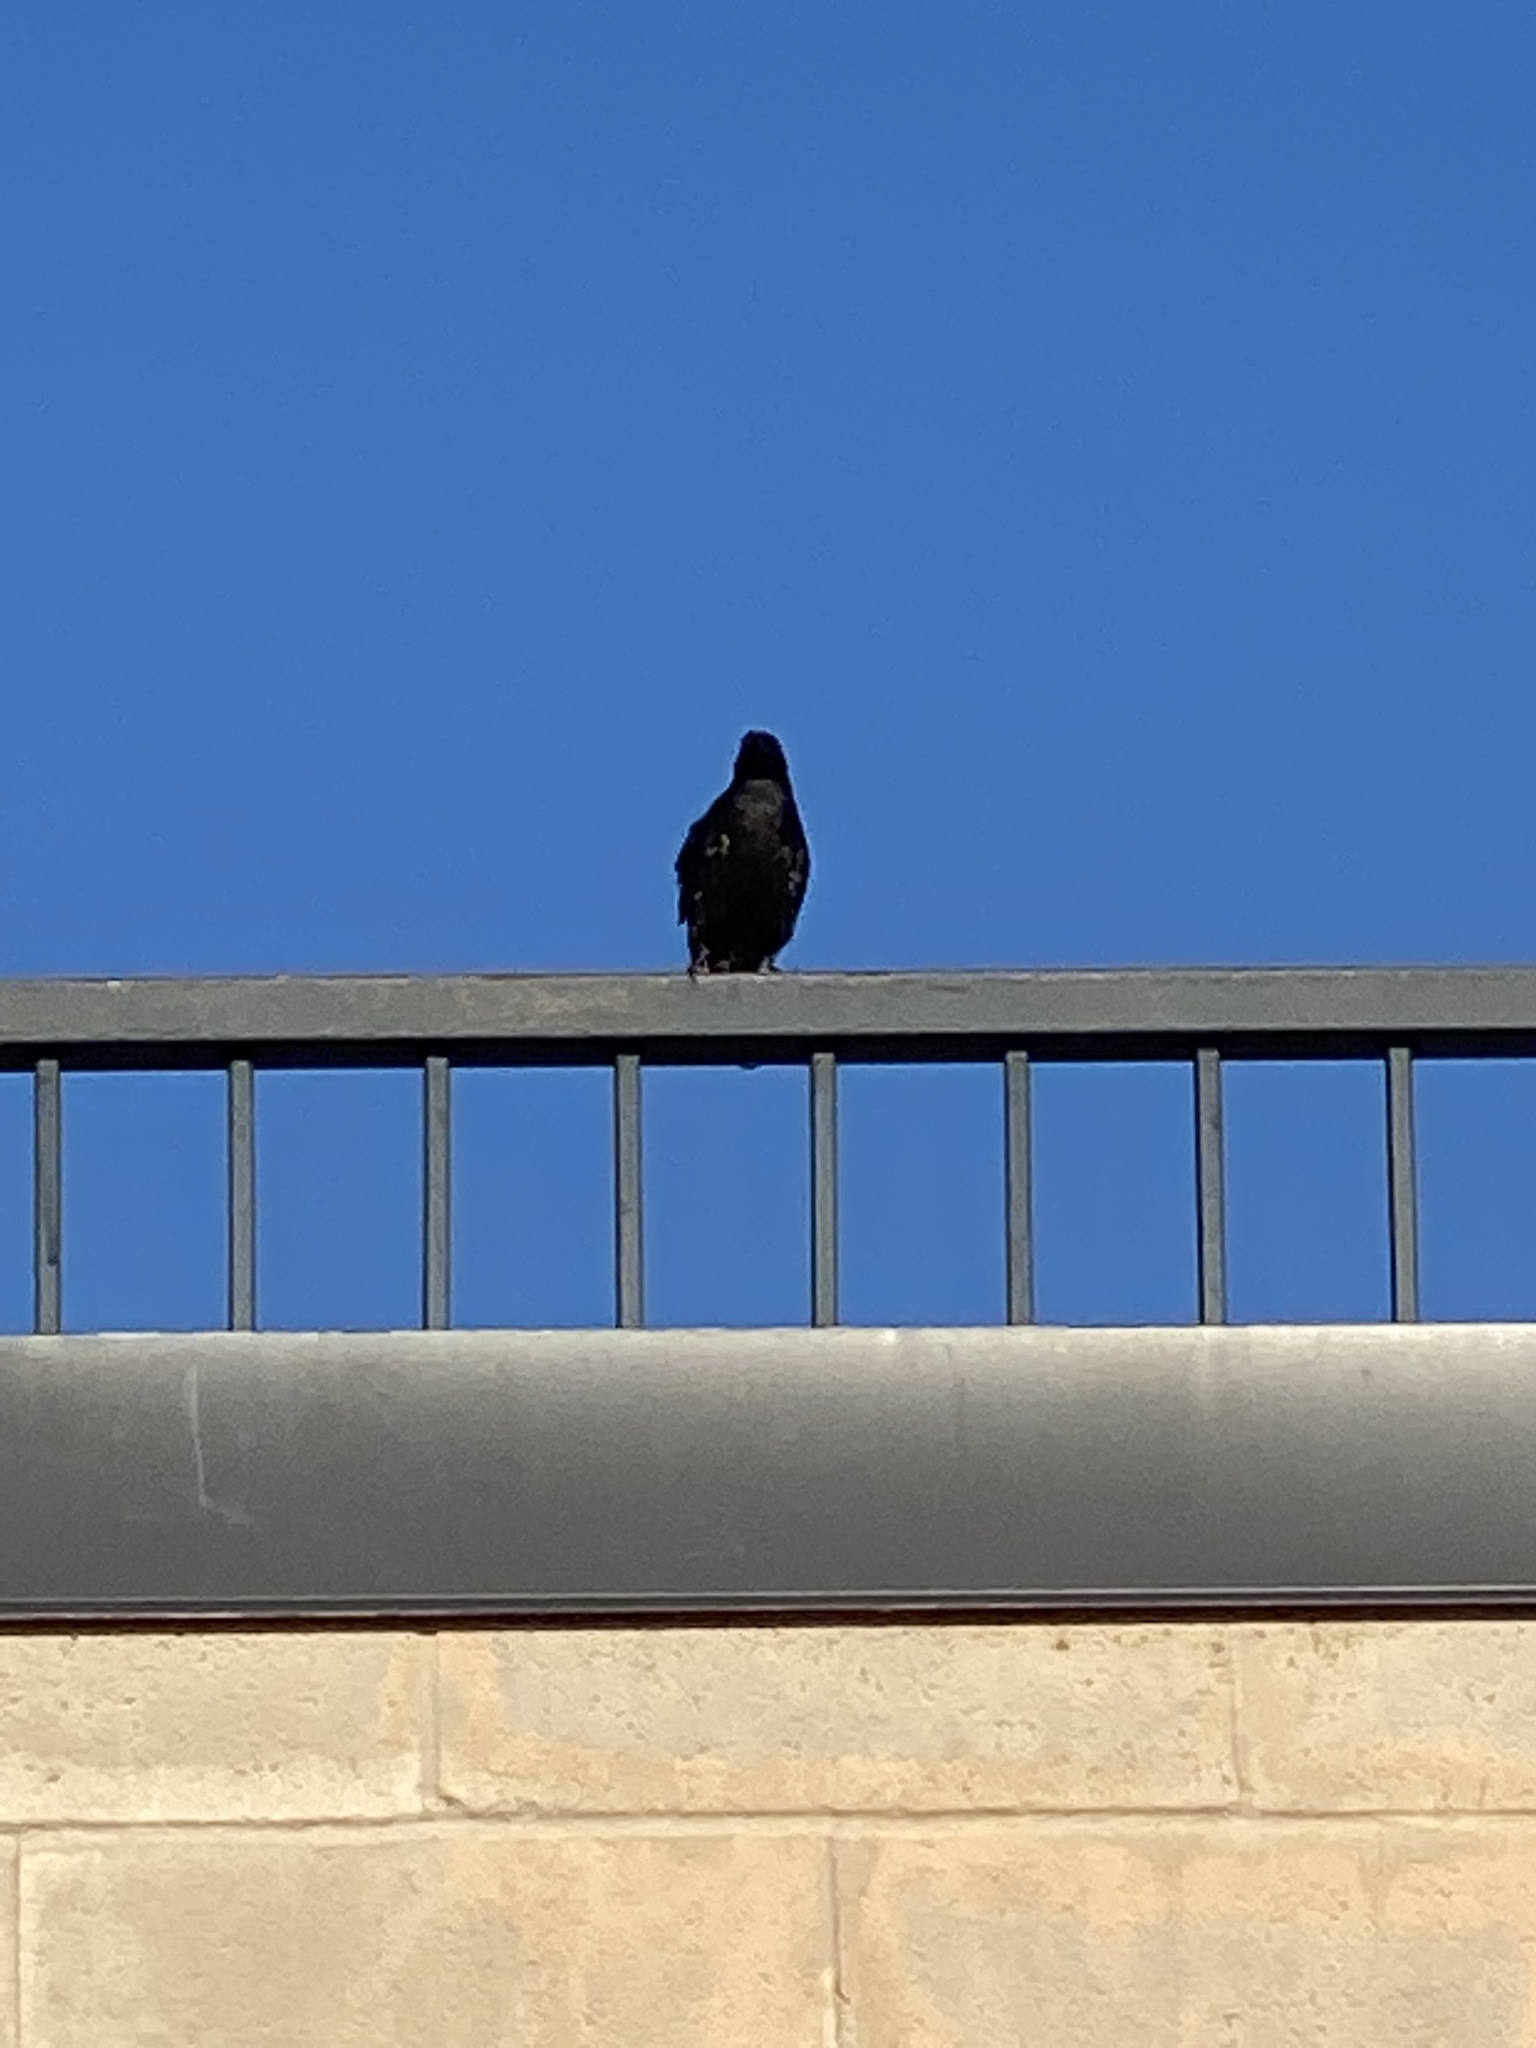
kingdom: Animalia
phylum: Chordata
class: Aves
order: Passeriformes
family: Sturnidae
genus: Sturnus
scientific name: Sturnus vulgaris
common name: Common starling
